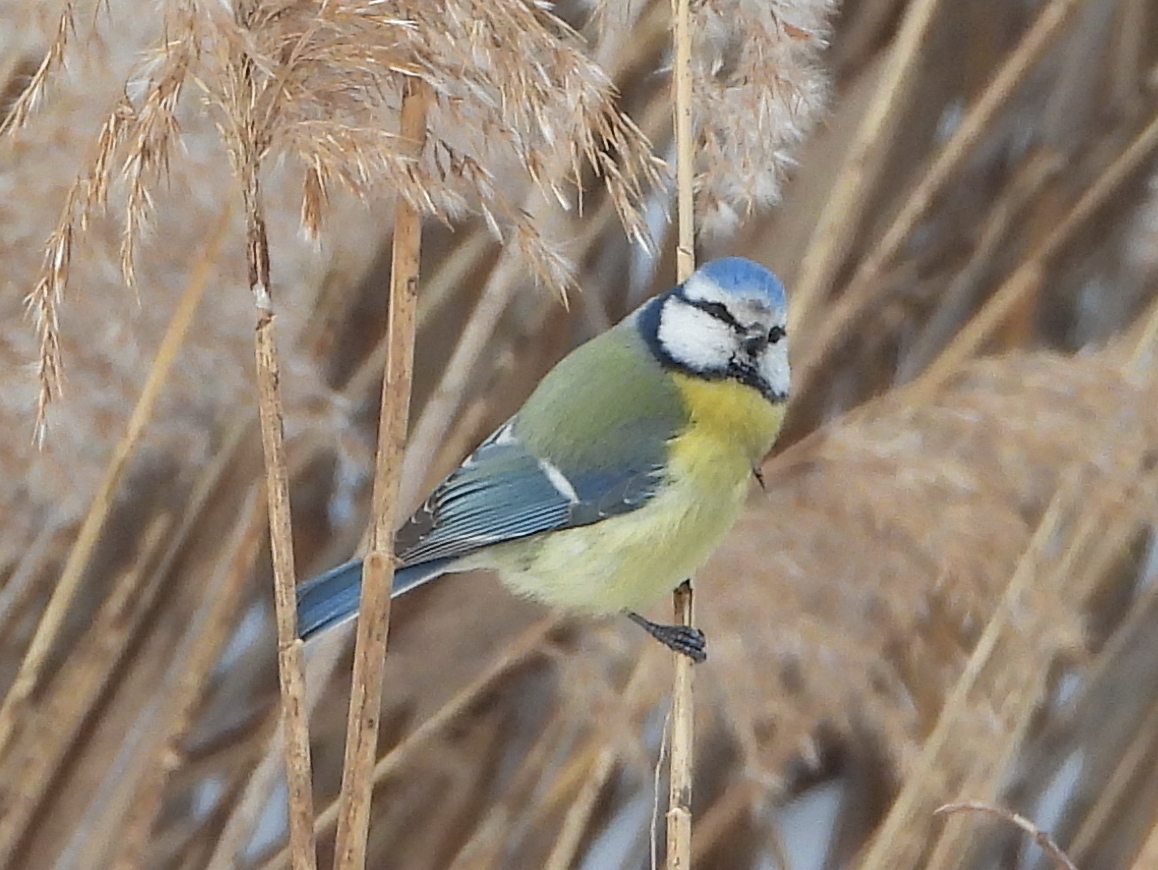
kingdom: Animalia
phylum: Chordata
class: Aves
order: Passeriformes
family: Paridae
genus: Cyanistes
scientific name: Cyanistes caeruleus
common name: Eurasian blue tit
